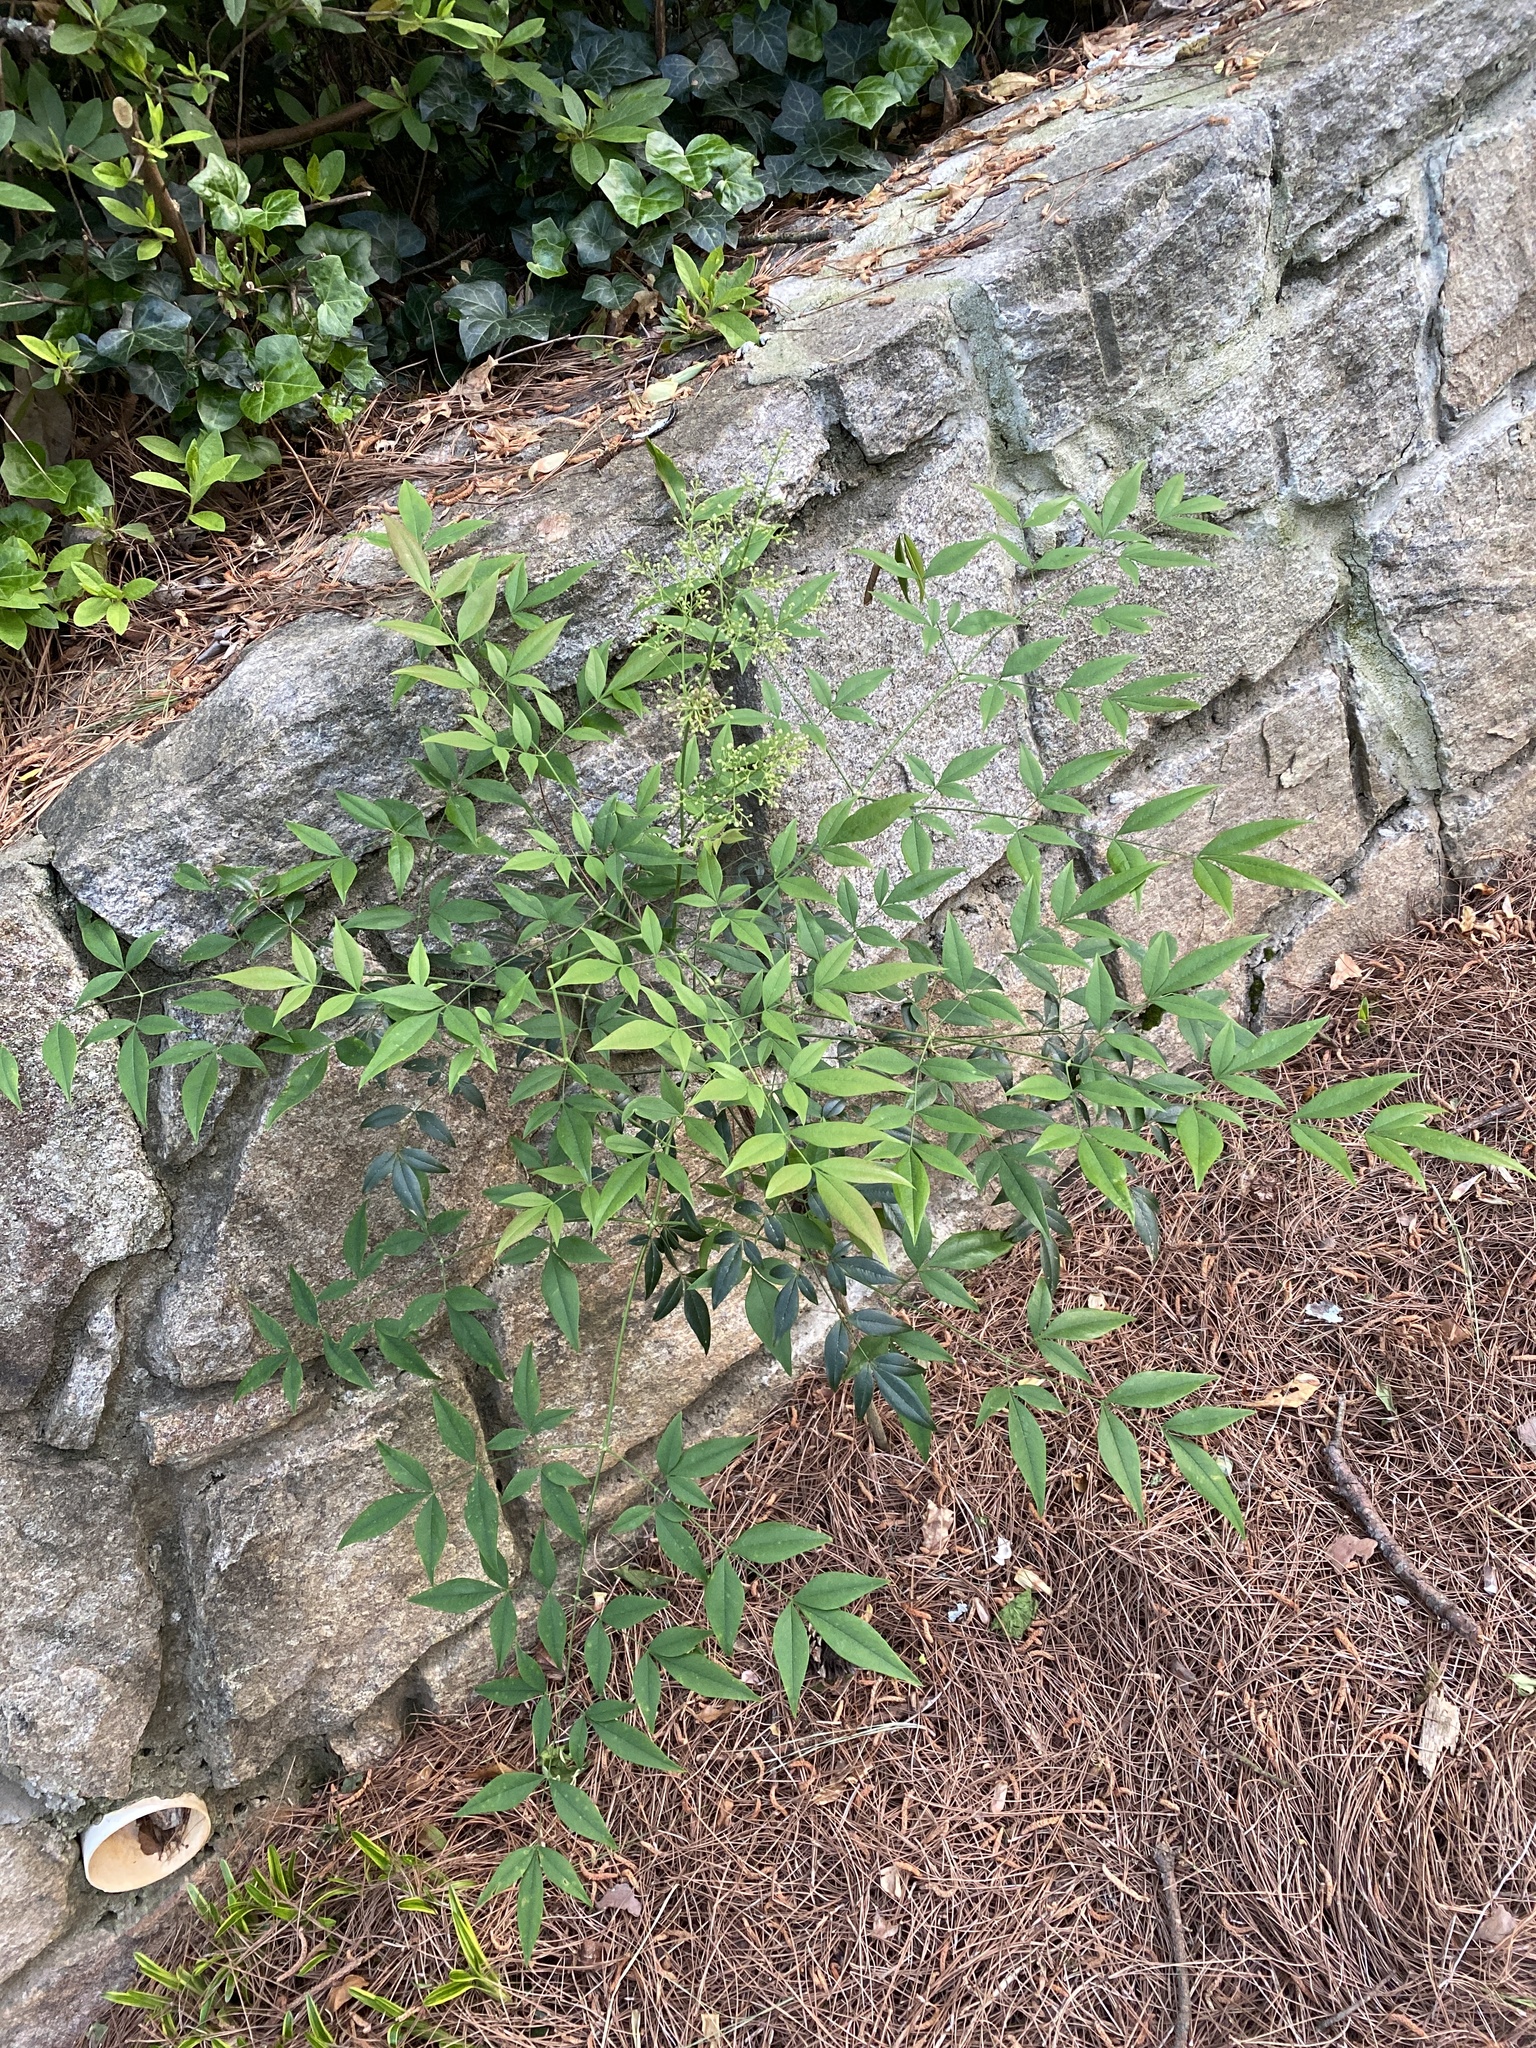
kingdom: Plantae
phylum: Tracheophyta
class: Magnoliopsida
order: Ranunculales
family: Berberidaceae
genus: Nandina
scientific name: Nandina domestica
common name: Sacred bamboo
